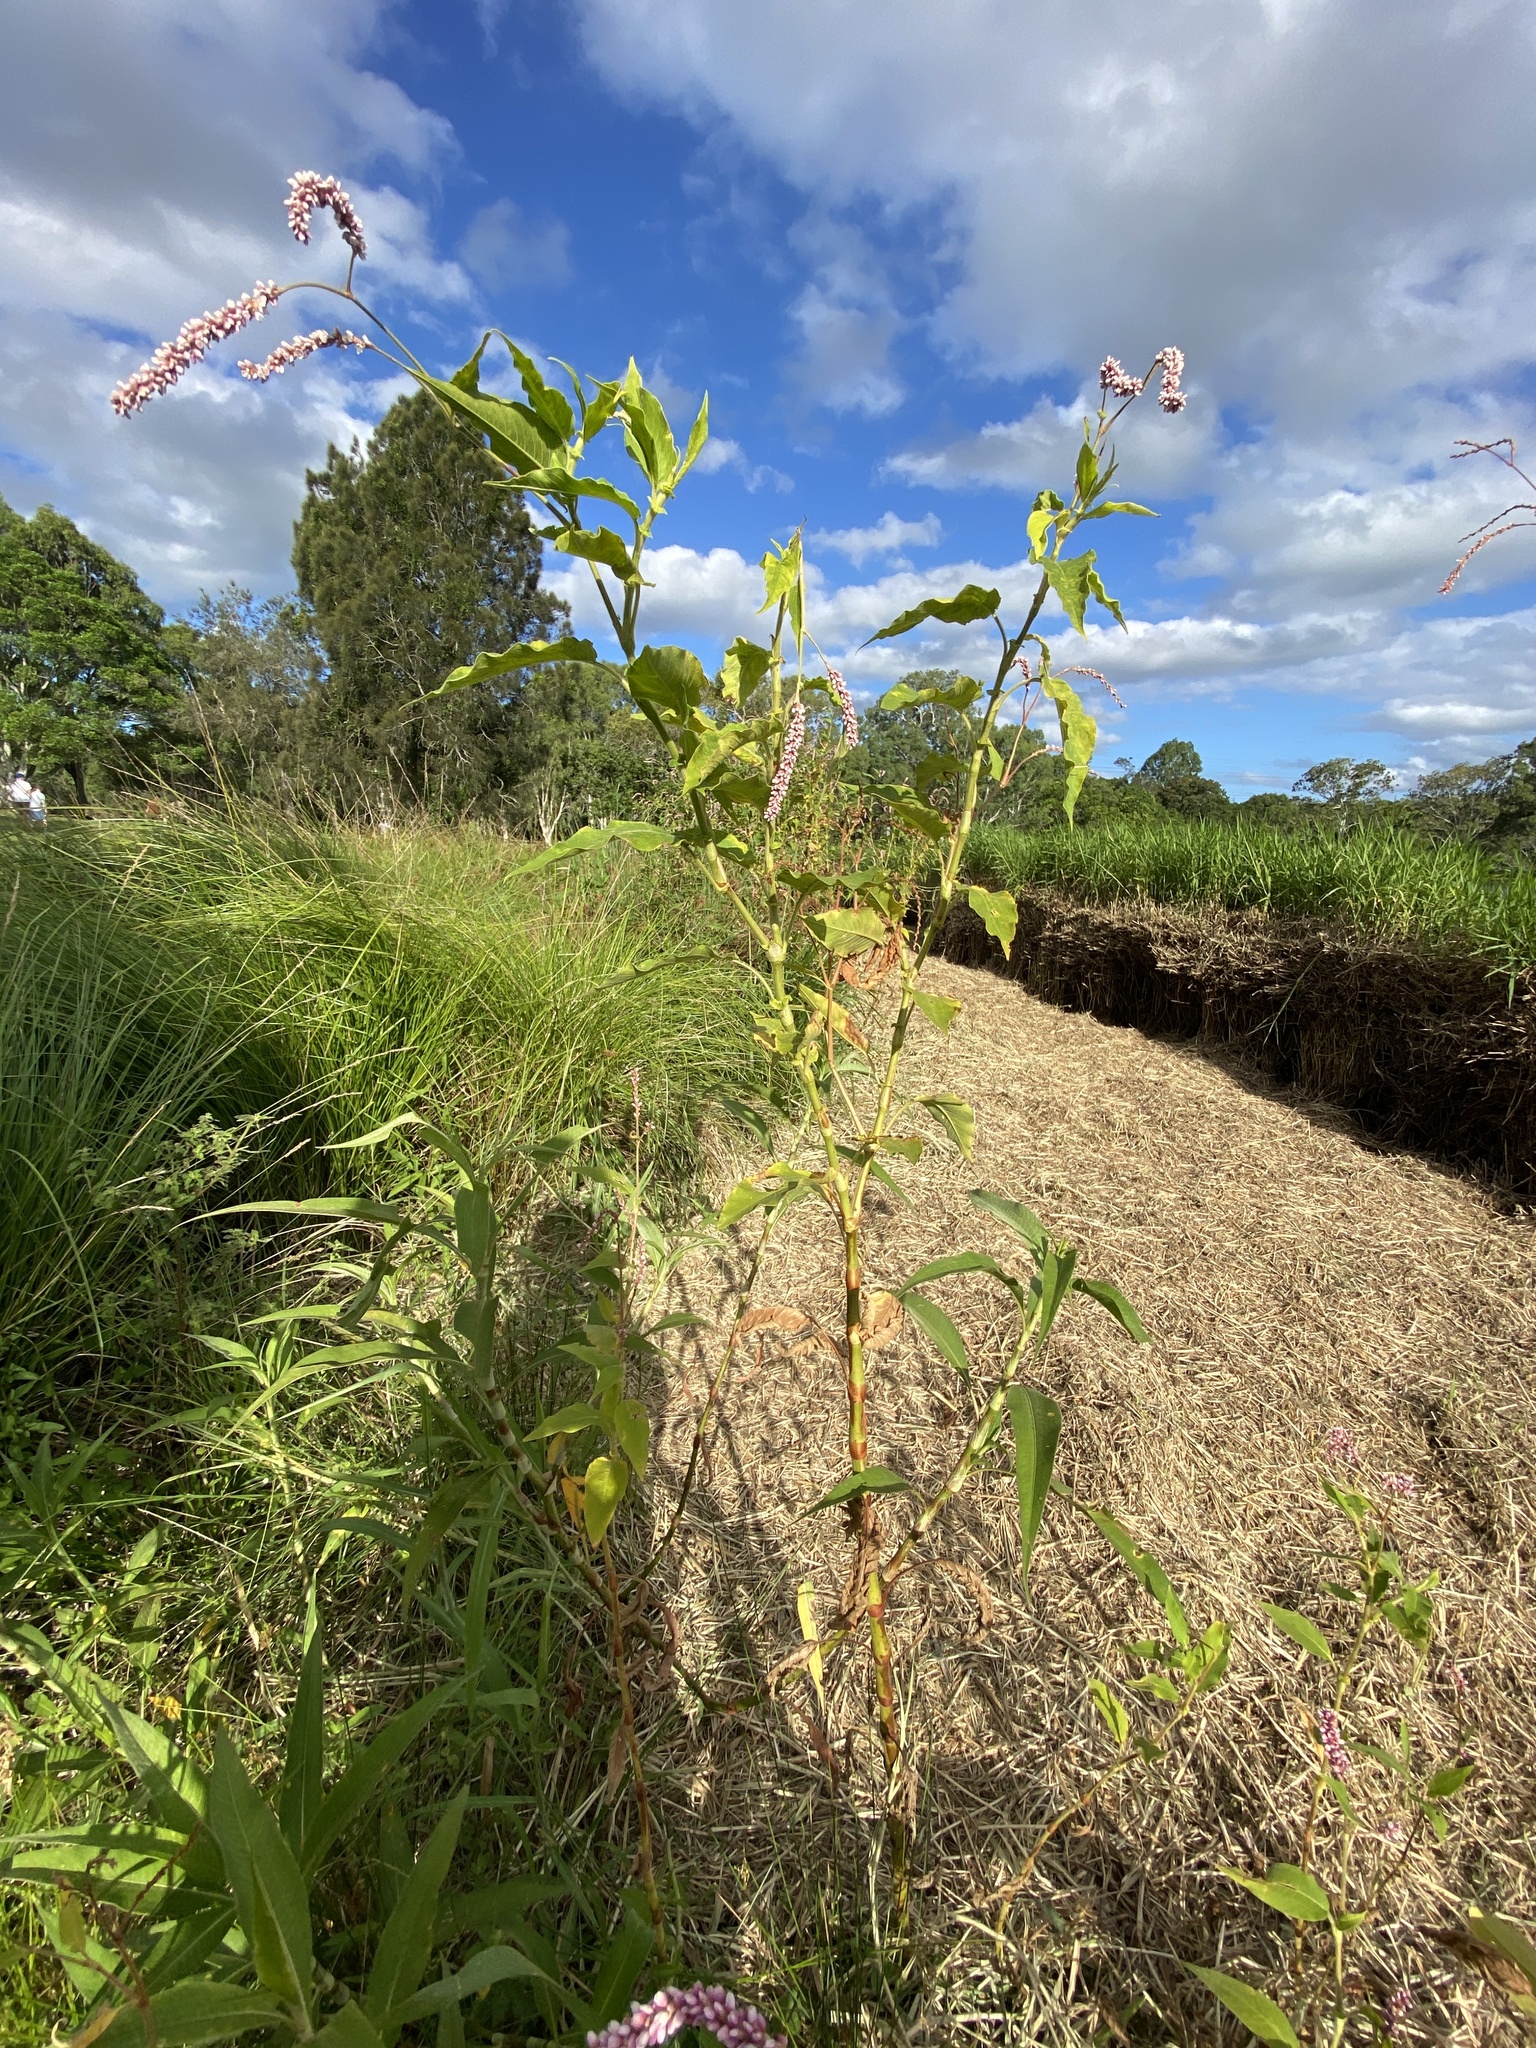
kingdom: Plantae
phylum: Tracheophyta
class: Magnoliopsida
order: Caryophyllales
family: Polygonaceae
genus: Persicaria
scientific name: Persicaria orientalis
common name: Kiss-me-over-the-garden-gate
